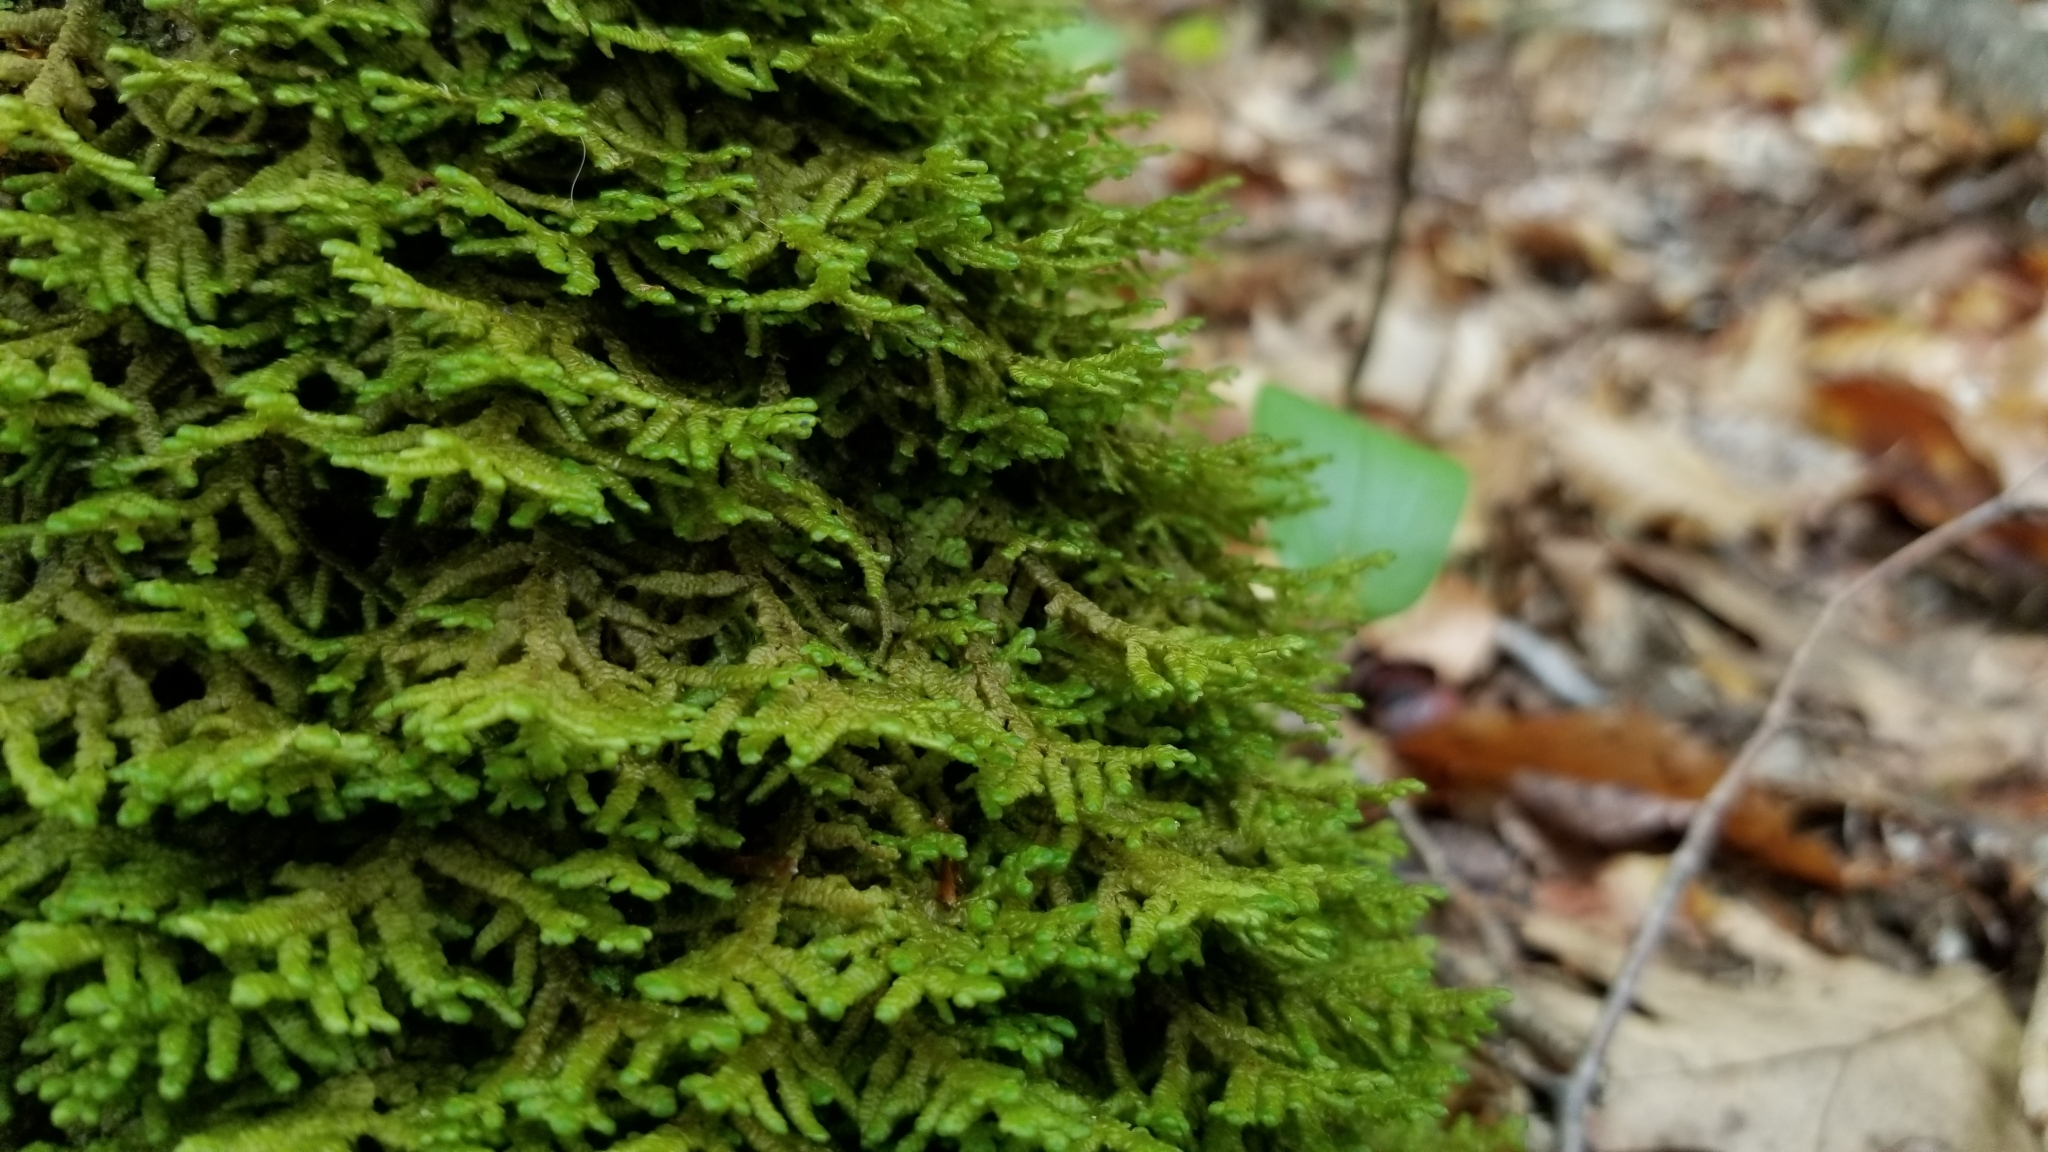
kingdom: Plantae
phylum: Marchantiophyta
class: Jungermanniopsida
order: Porellales
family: Porellaceae
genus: Porella
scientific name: Porella platyphylla
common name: Wall scalewort
